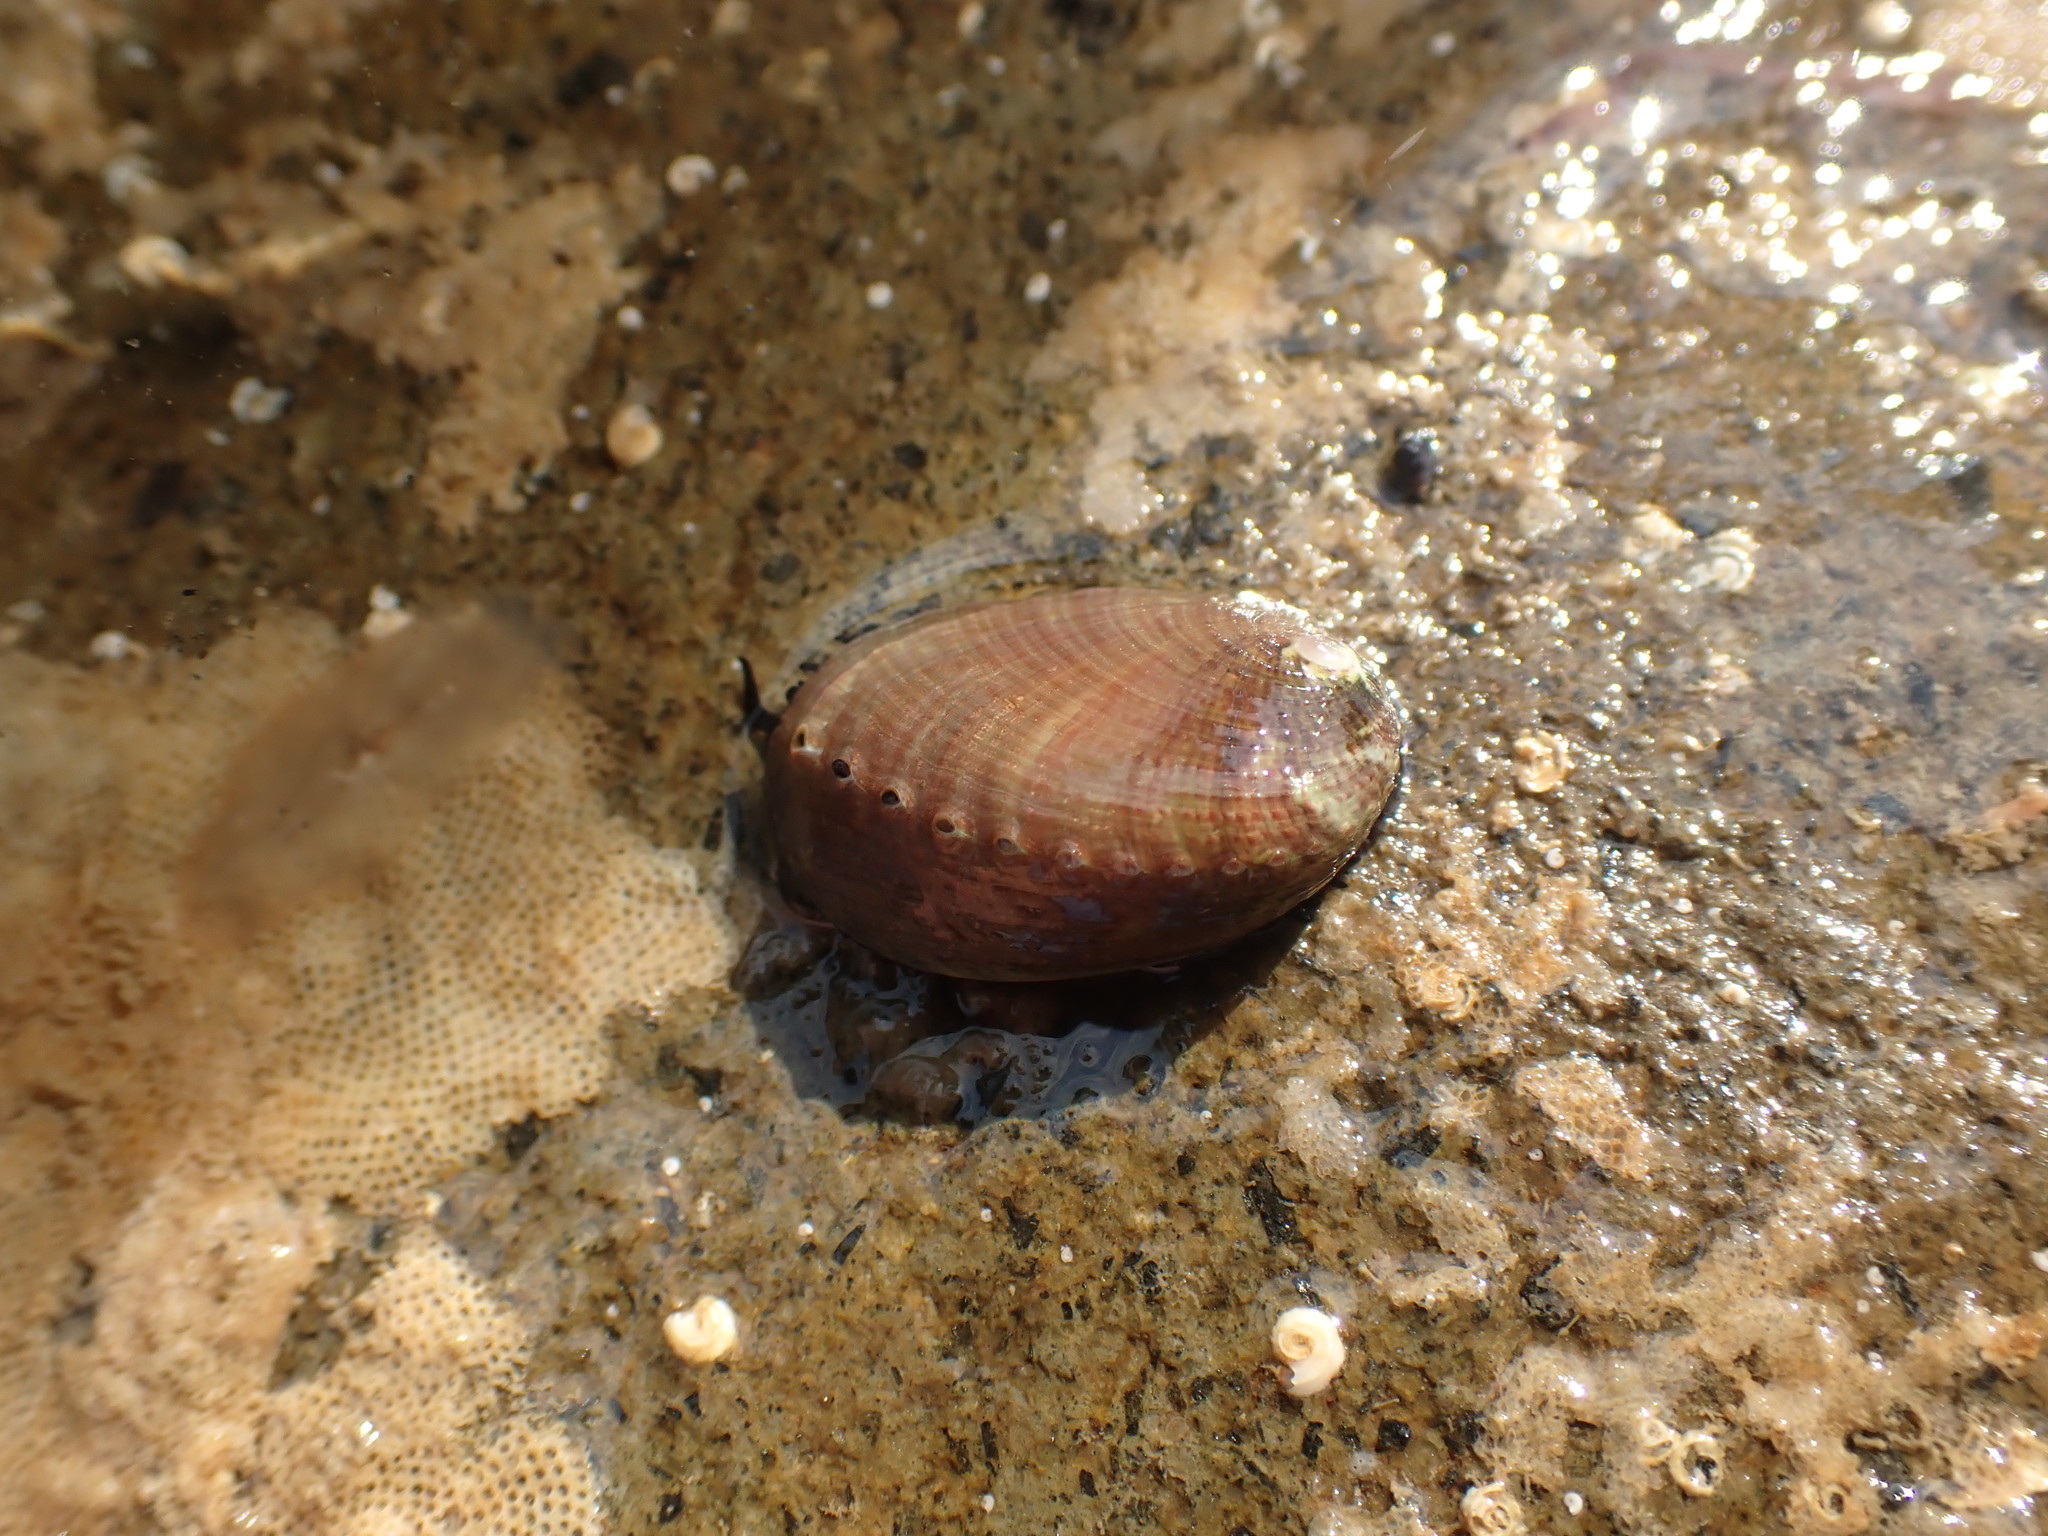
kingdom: Animalia
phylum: Mollusca
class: Gastropoda
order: Lepetellida
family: Haliotidae
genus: Haliotis
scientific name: Haliotis iris
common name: Abalone
